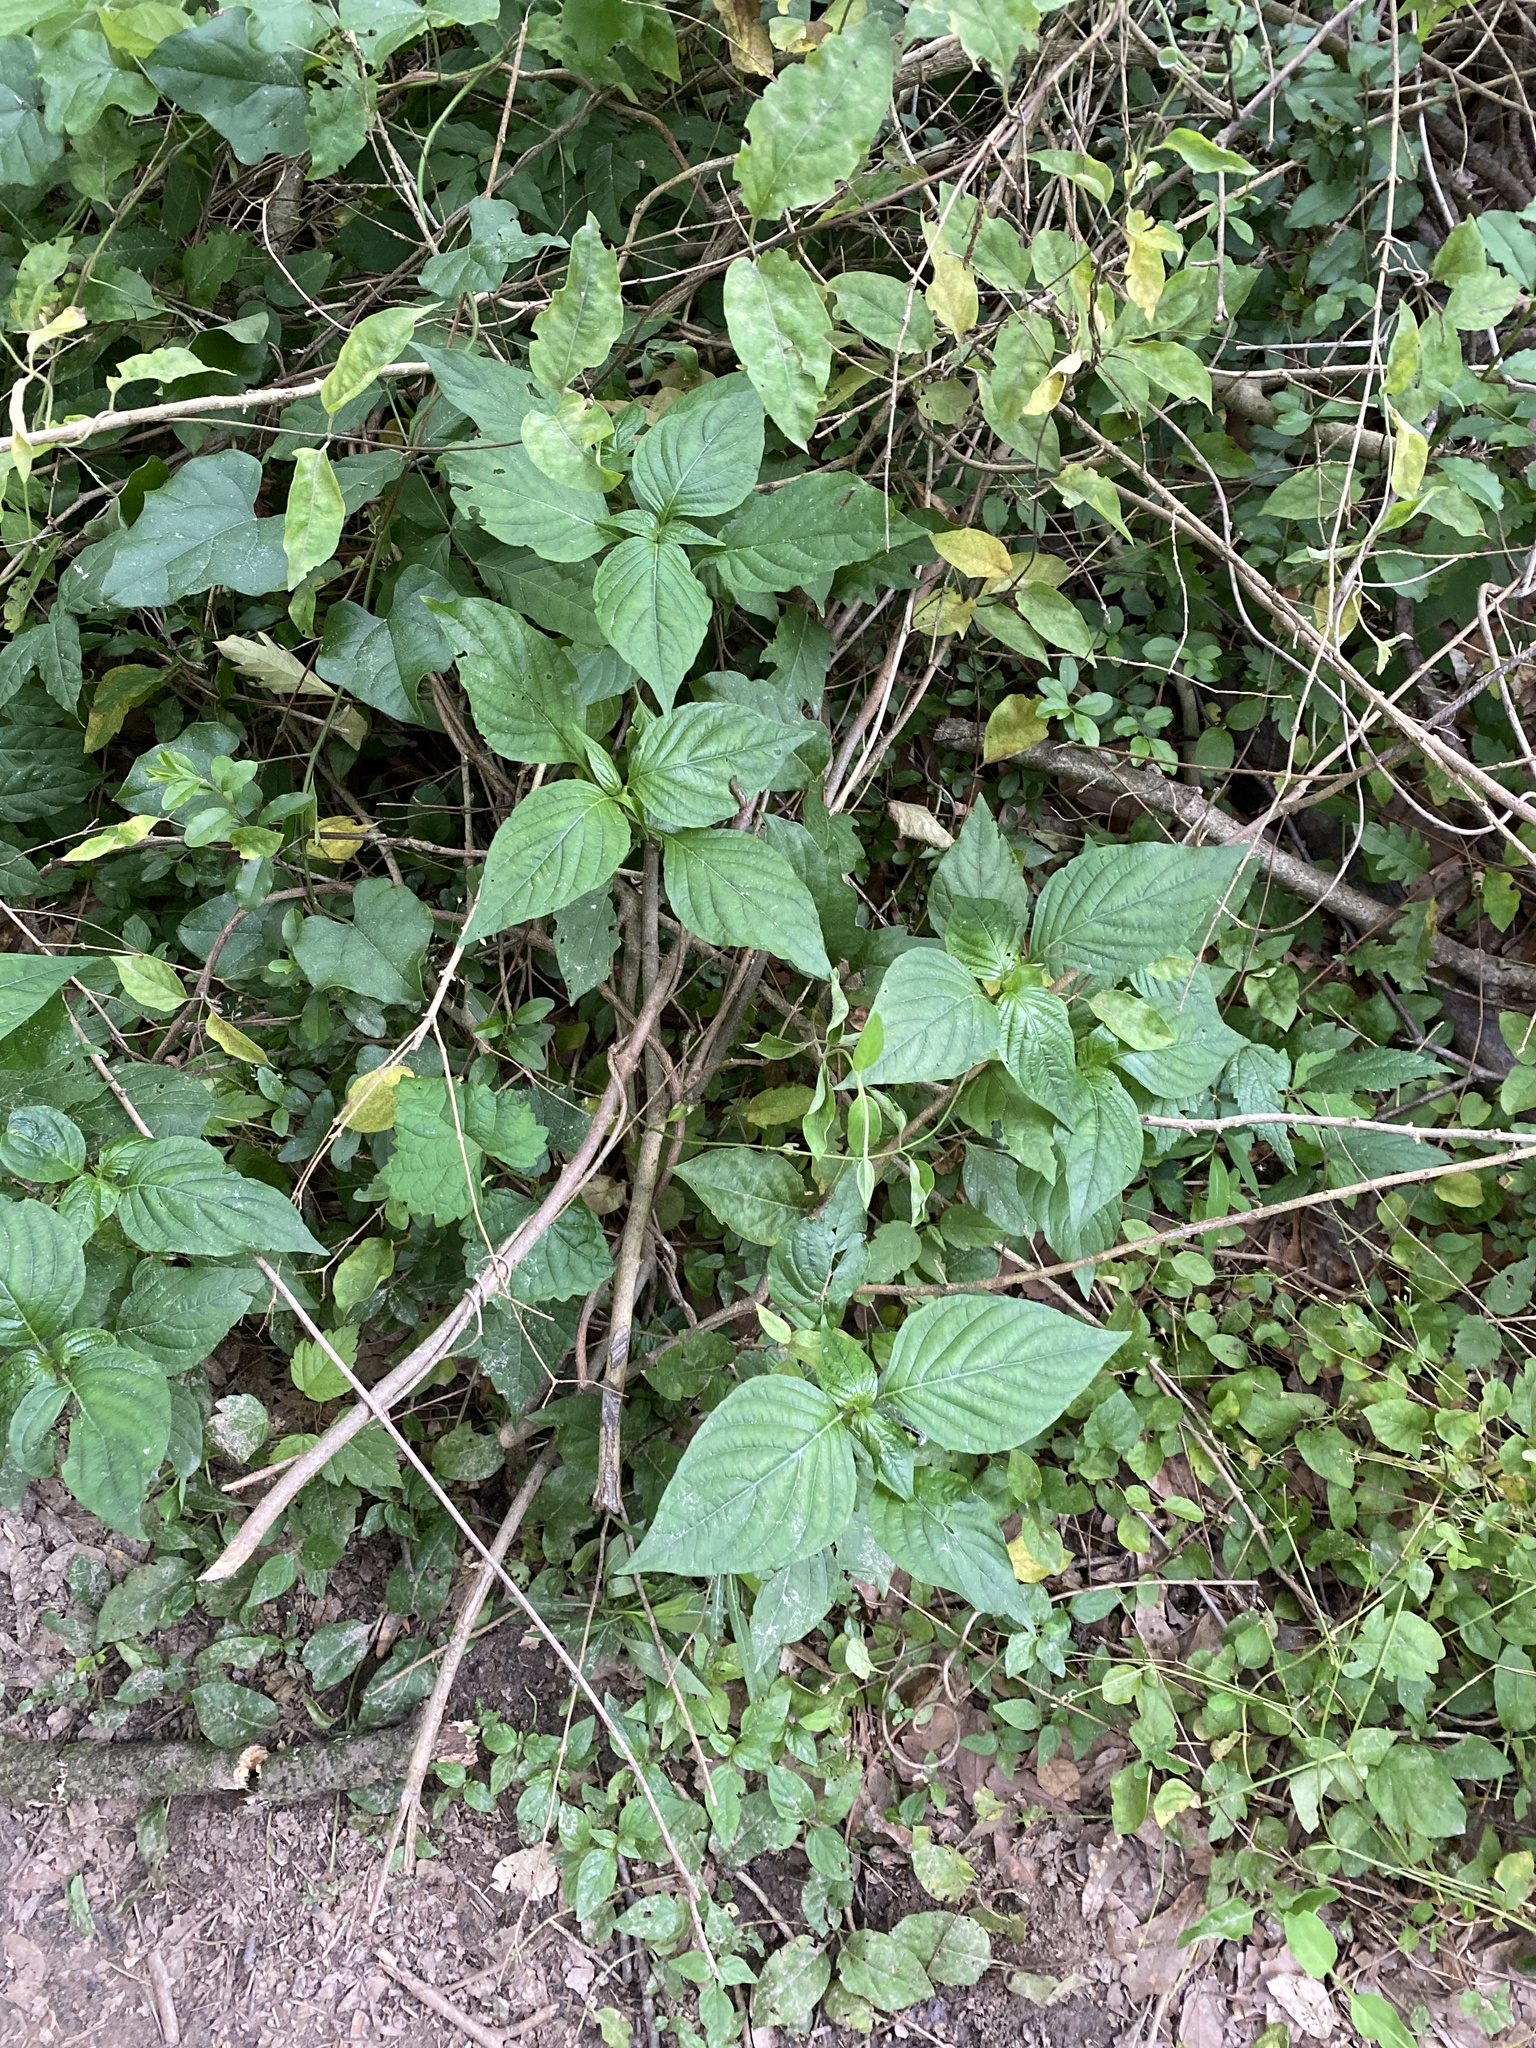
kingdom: Plantae
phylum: Tracheophyta
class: Magnoliopsida
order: Caryophyllales
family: Amaranthaceae
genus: Achyranthes
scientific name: Achyranthes bidentata
